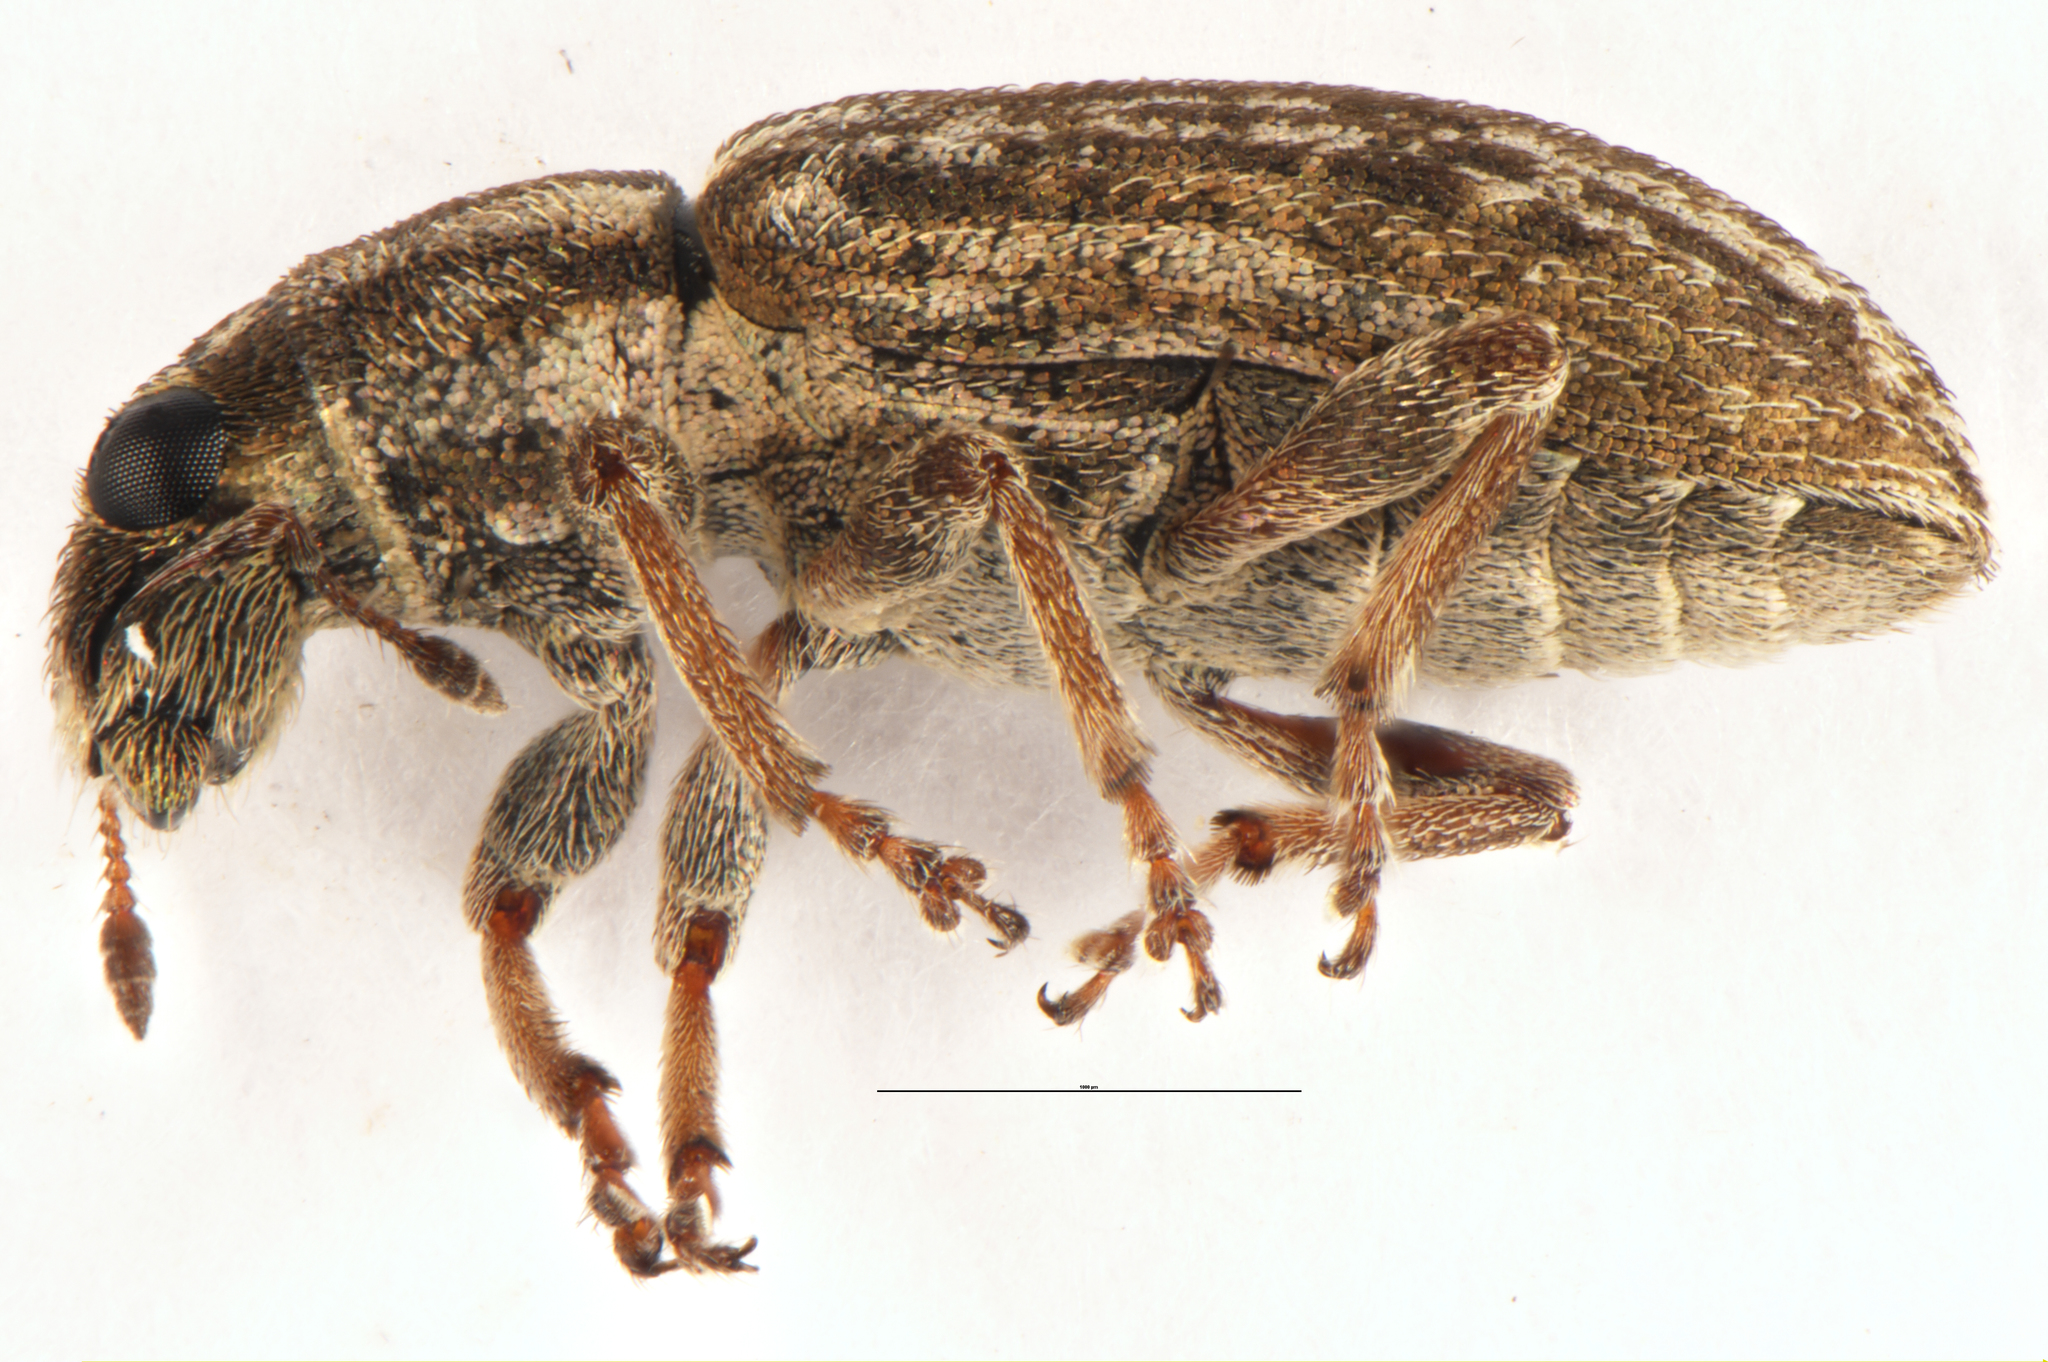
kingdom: Animalia
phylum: Arthropoda
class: Insecta
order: Coleoptera
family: Curculionidae
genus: Sitona
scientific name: Sitona discoideus
